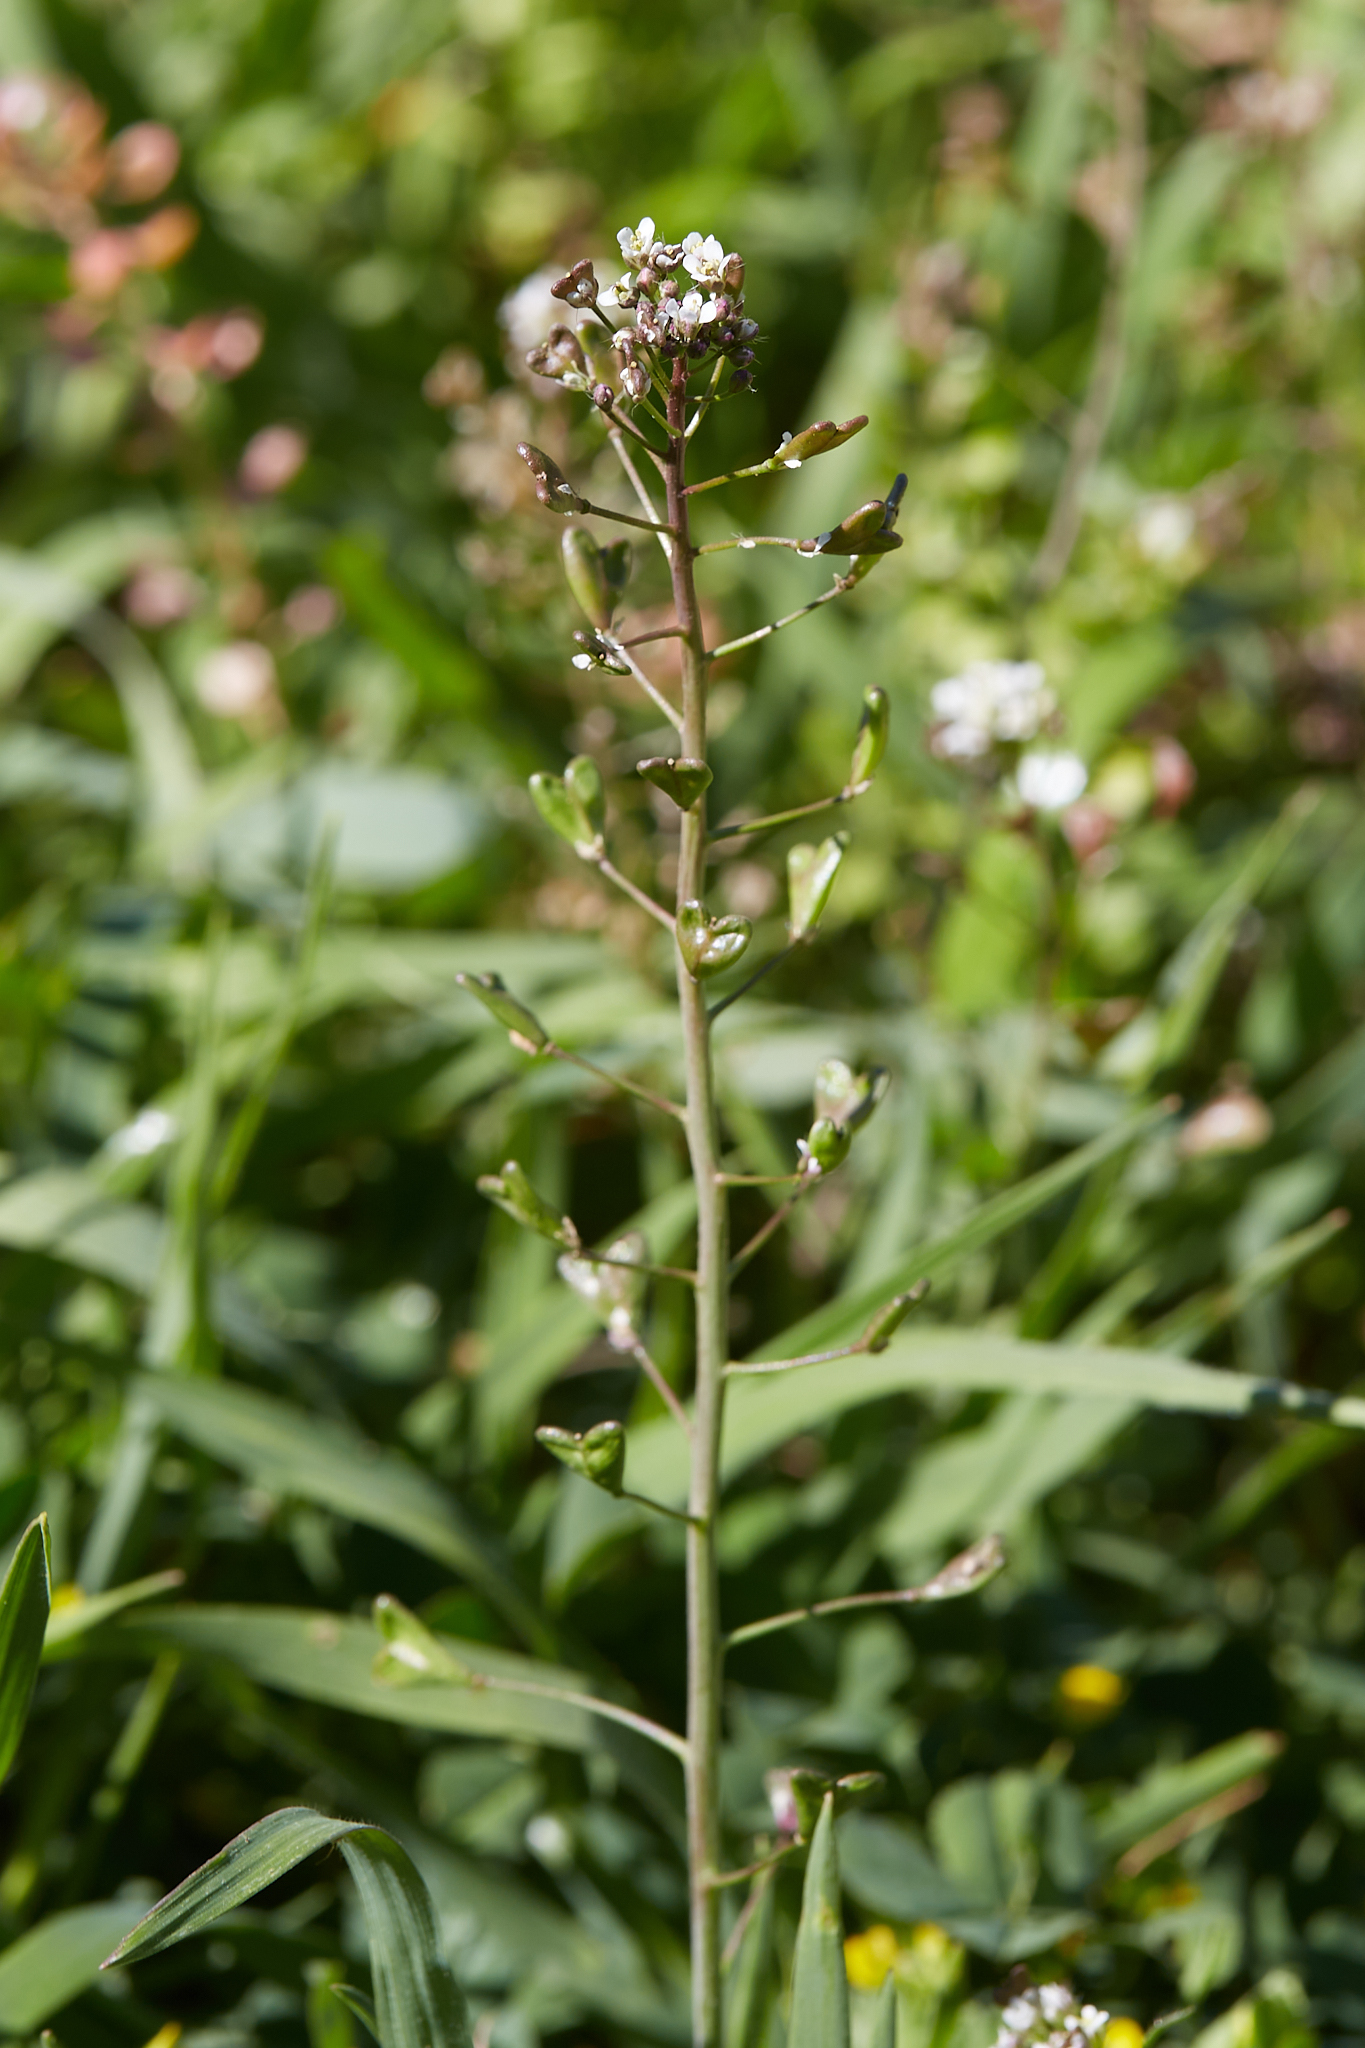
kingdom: Plantae
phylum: Tracheophyta
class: Magnoliopsida
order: Brassicales
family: Brassicaceae
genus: Capsella
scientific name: Capsella bursa-pastoris
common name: Shepherd's purse
